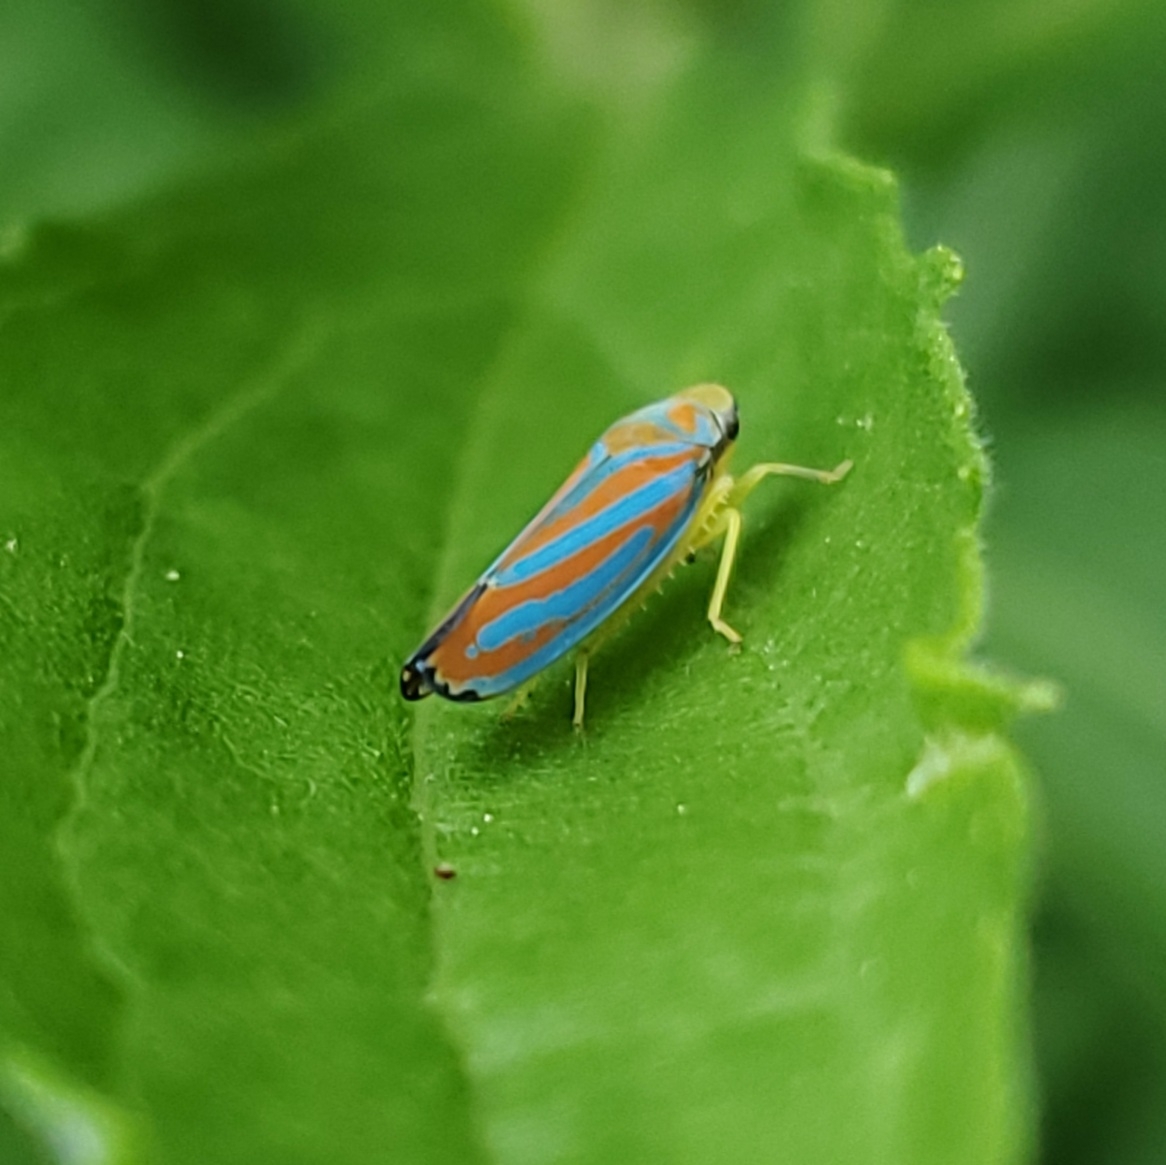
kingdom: Animalia
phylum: Arthropoda
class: Insecta
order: Hemiptera
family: Cicadellidae
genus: Graphocephala
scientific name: Graphocephala coccinea
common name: Candy-striped leafhopper
